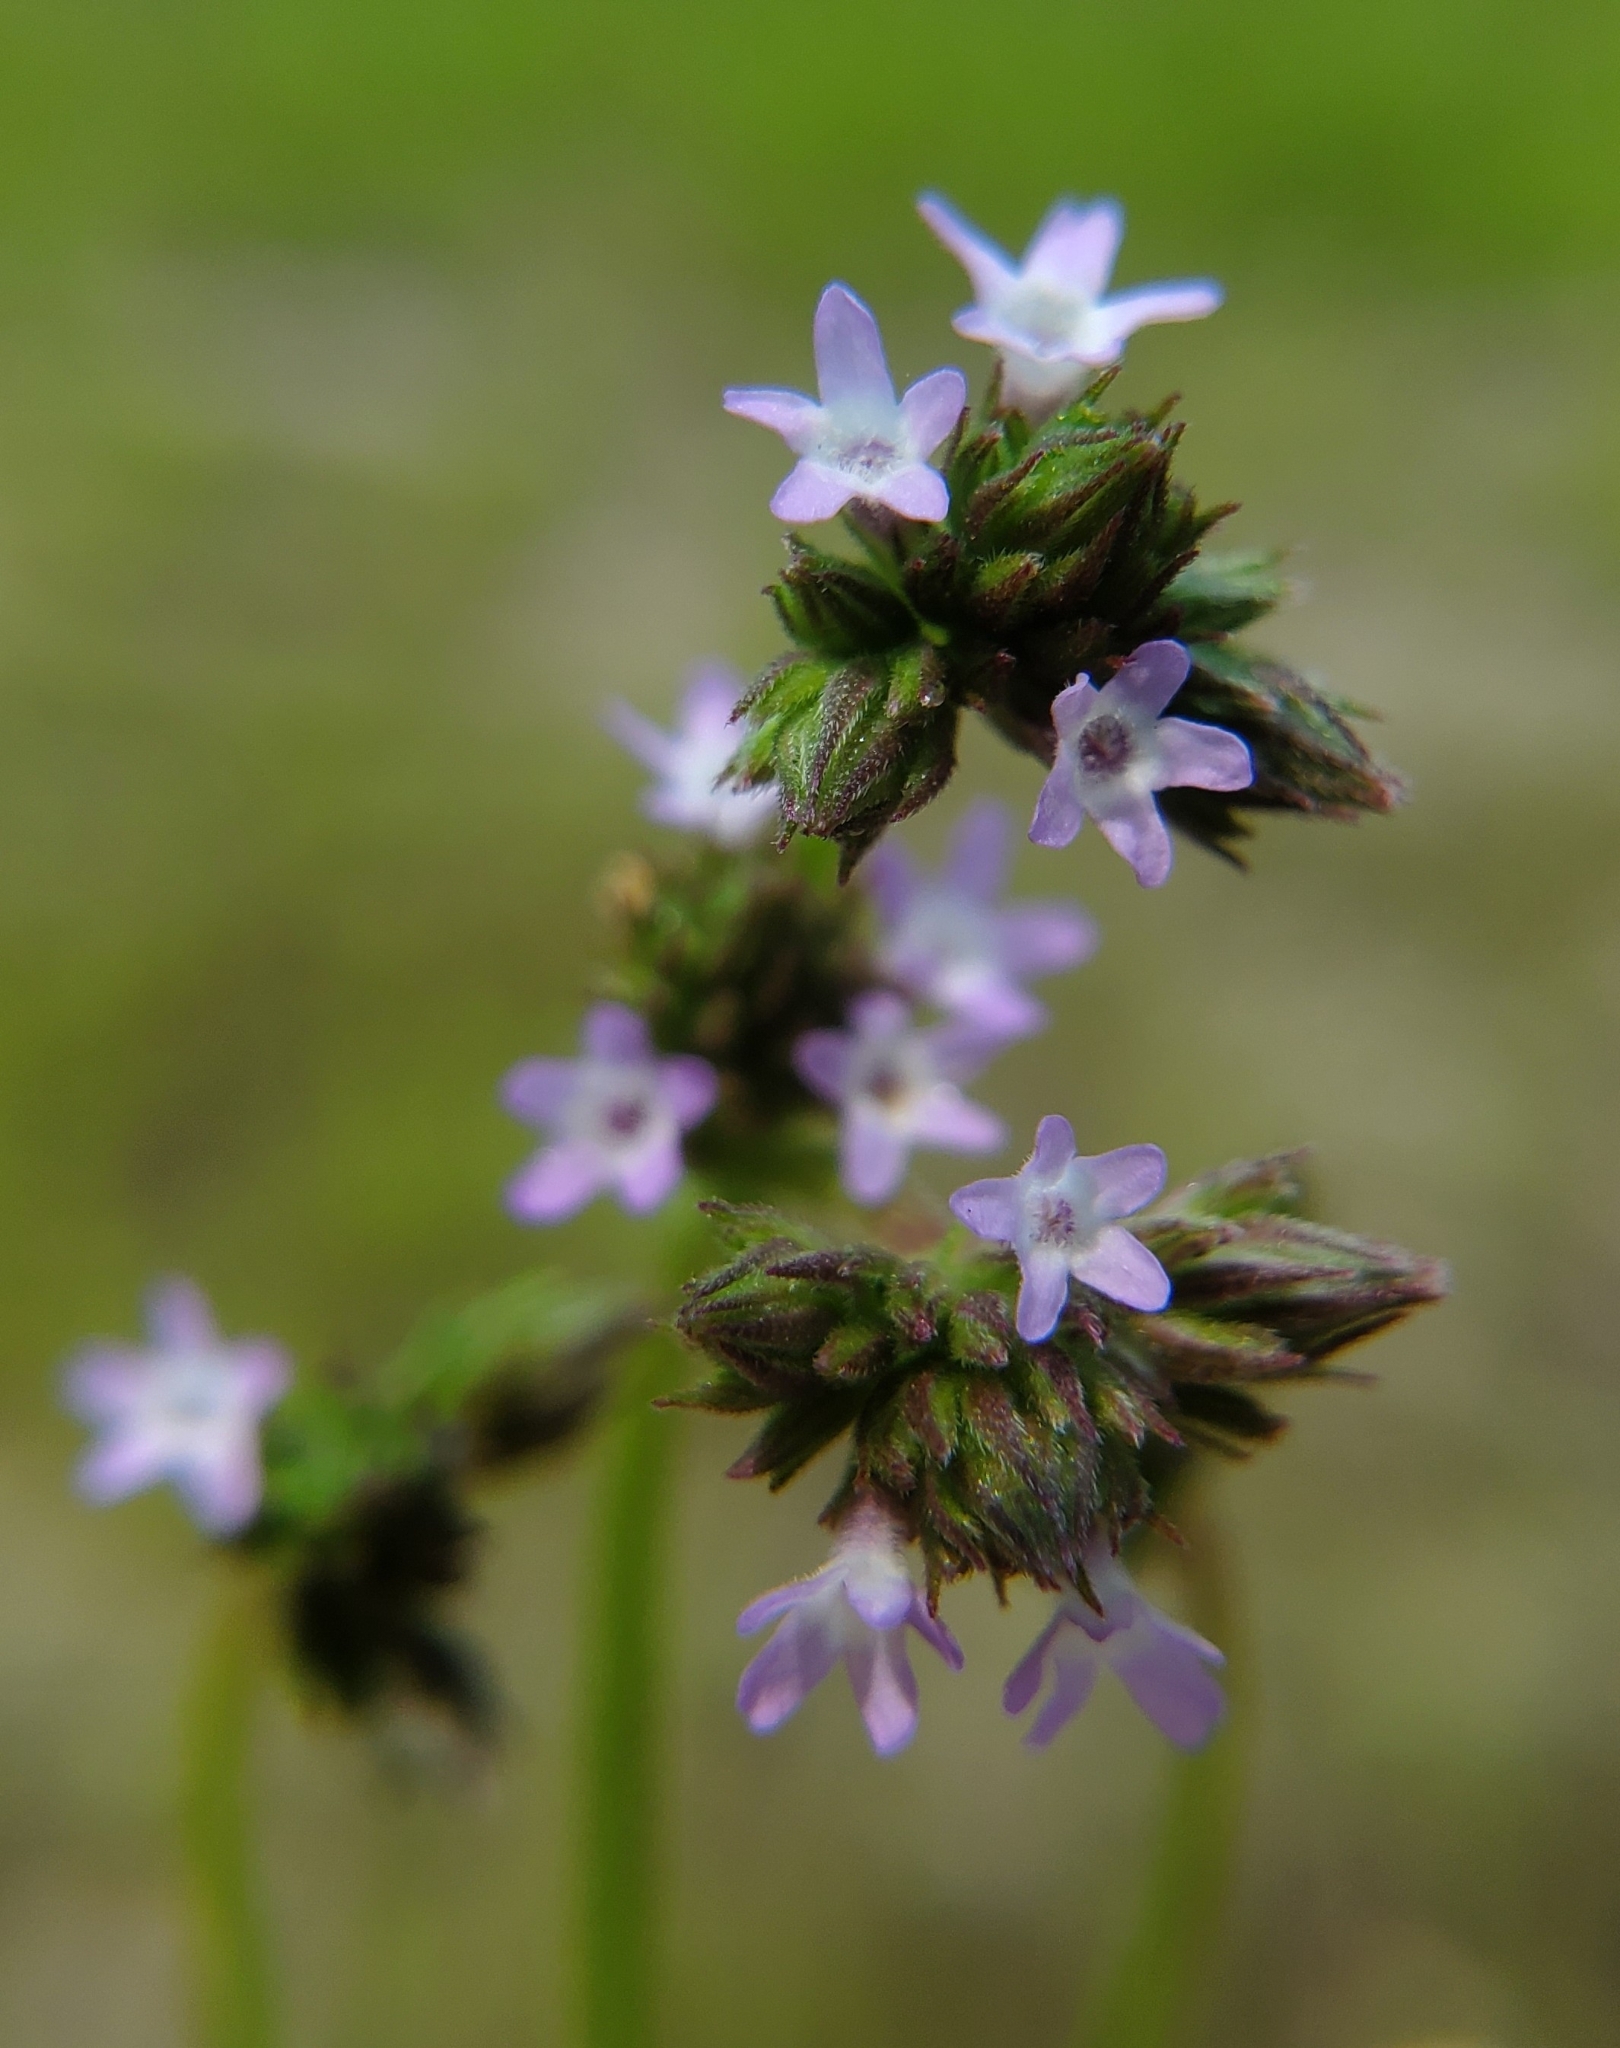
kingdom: Plantae
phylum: Tracheophyta
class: Magnoliopsida
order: Lamiales
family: Verbenaceae
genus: Verbena
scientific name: Verbena brasiliensis
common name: Brazilian vervain
